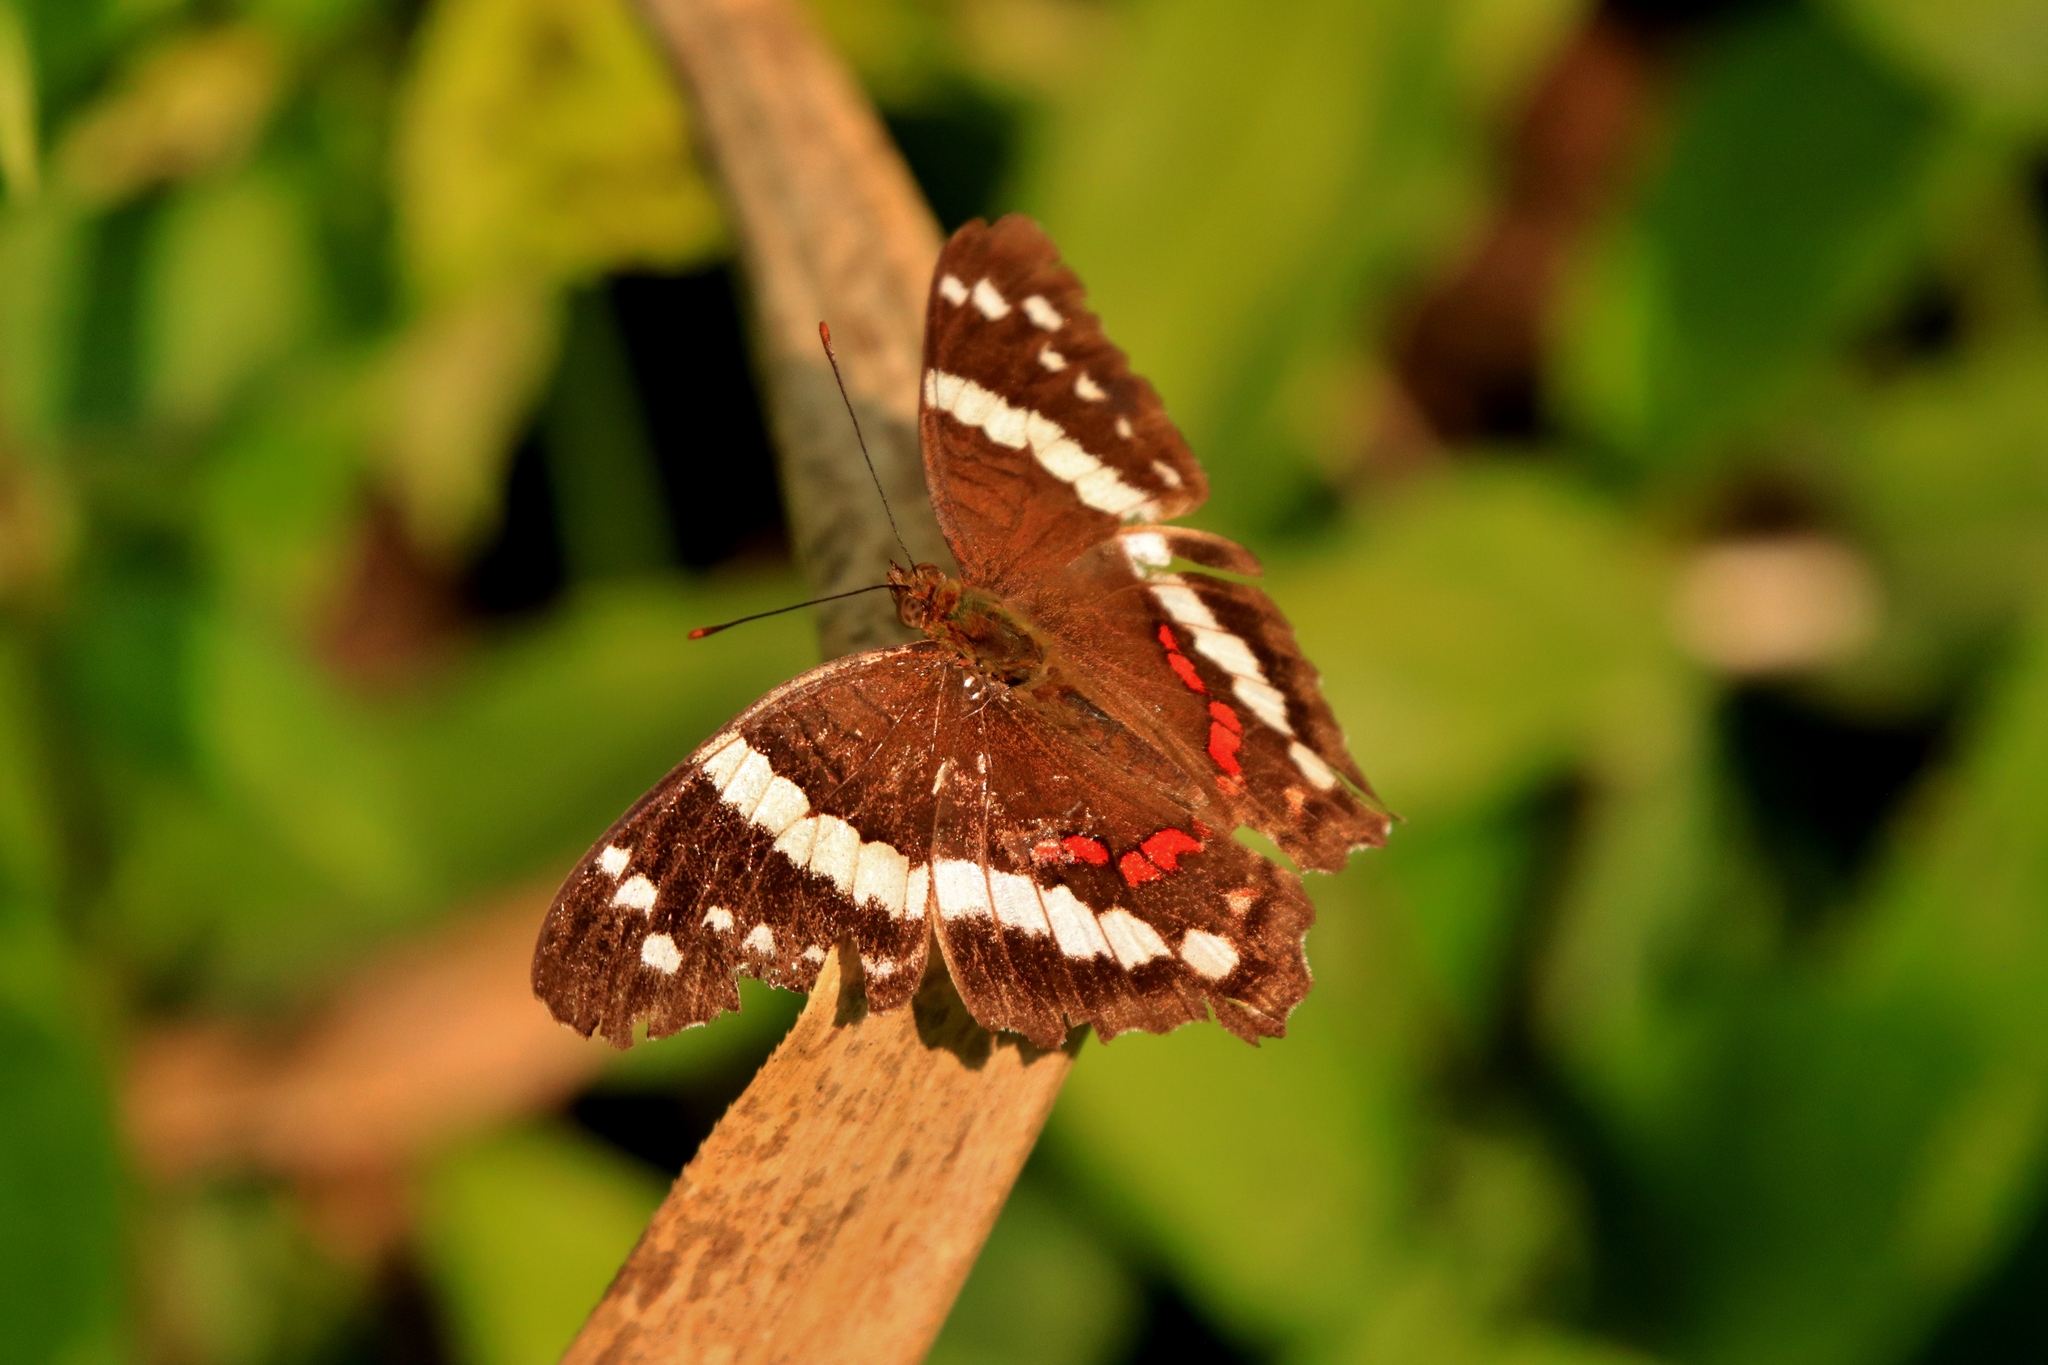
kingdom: Animalia
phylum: Arthropoda
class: Insecta
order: Lepidoptera
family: Nymphalidae
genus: Anartia
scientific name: Anartia fatima
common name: Banded peacock
